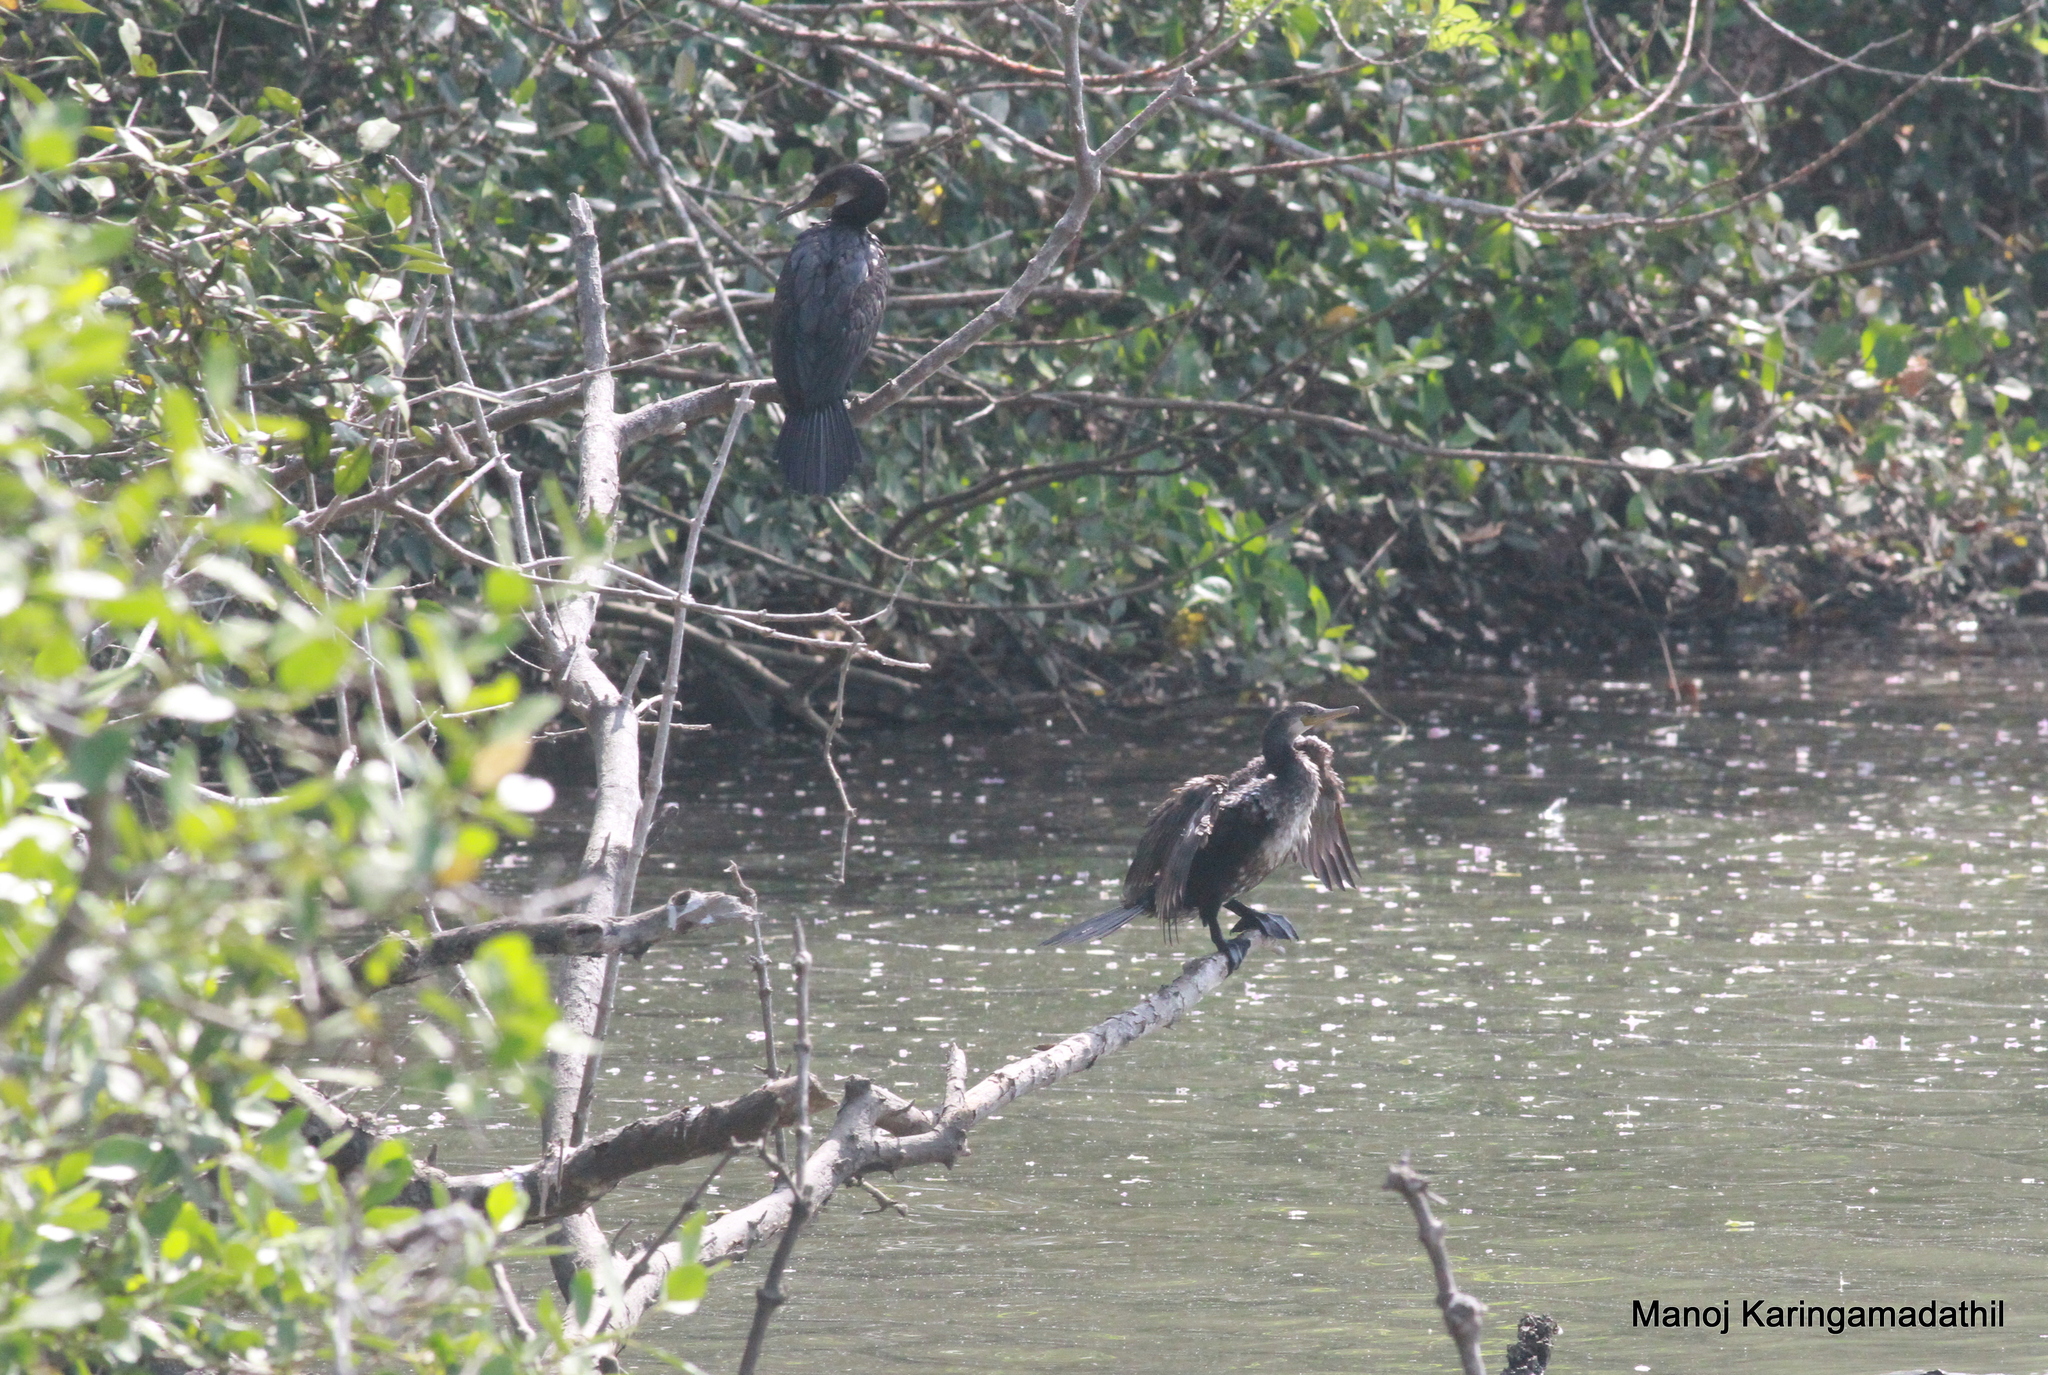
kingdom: Animalia
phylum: Chordata
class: Aves
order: Suliformes
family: Phalacrocoracidae
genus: Microcarbo
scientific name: Microcarbo niger
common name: Little cormorant
